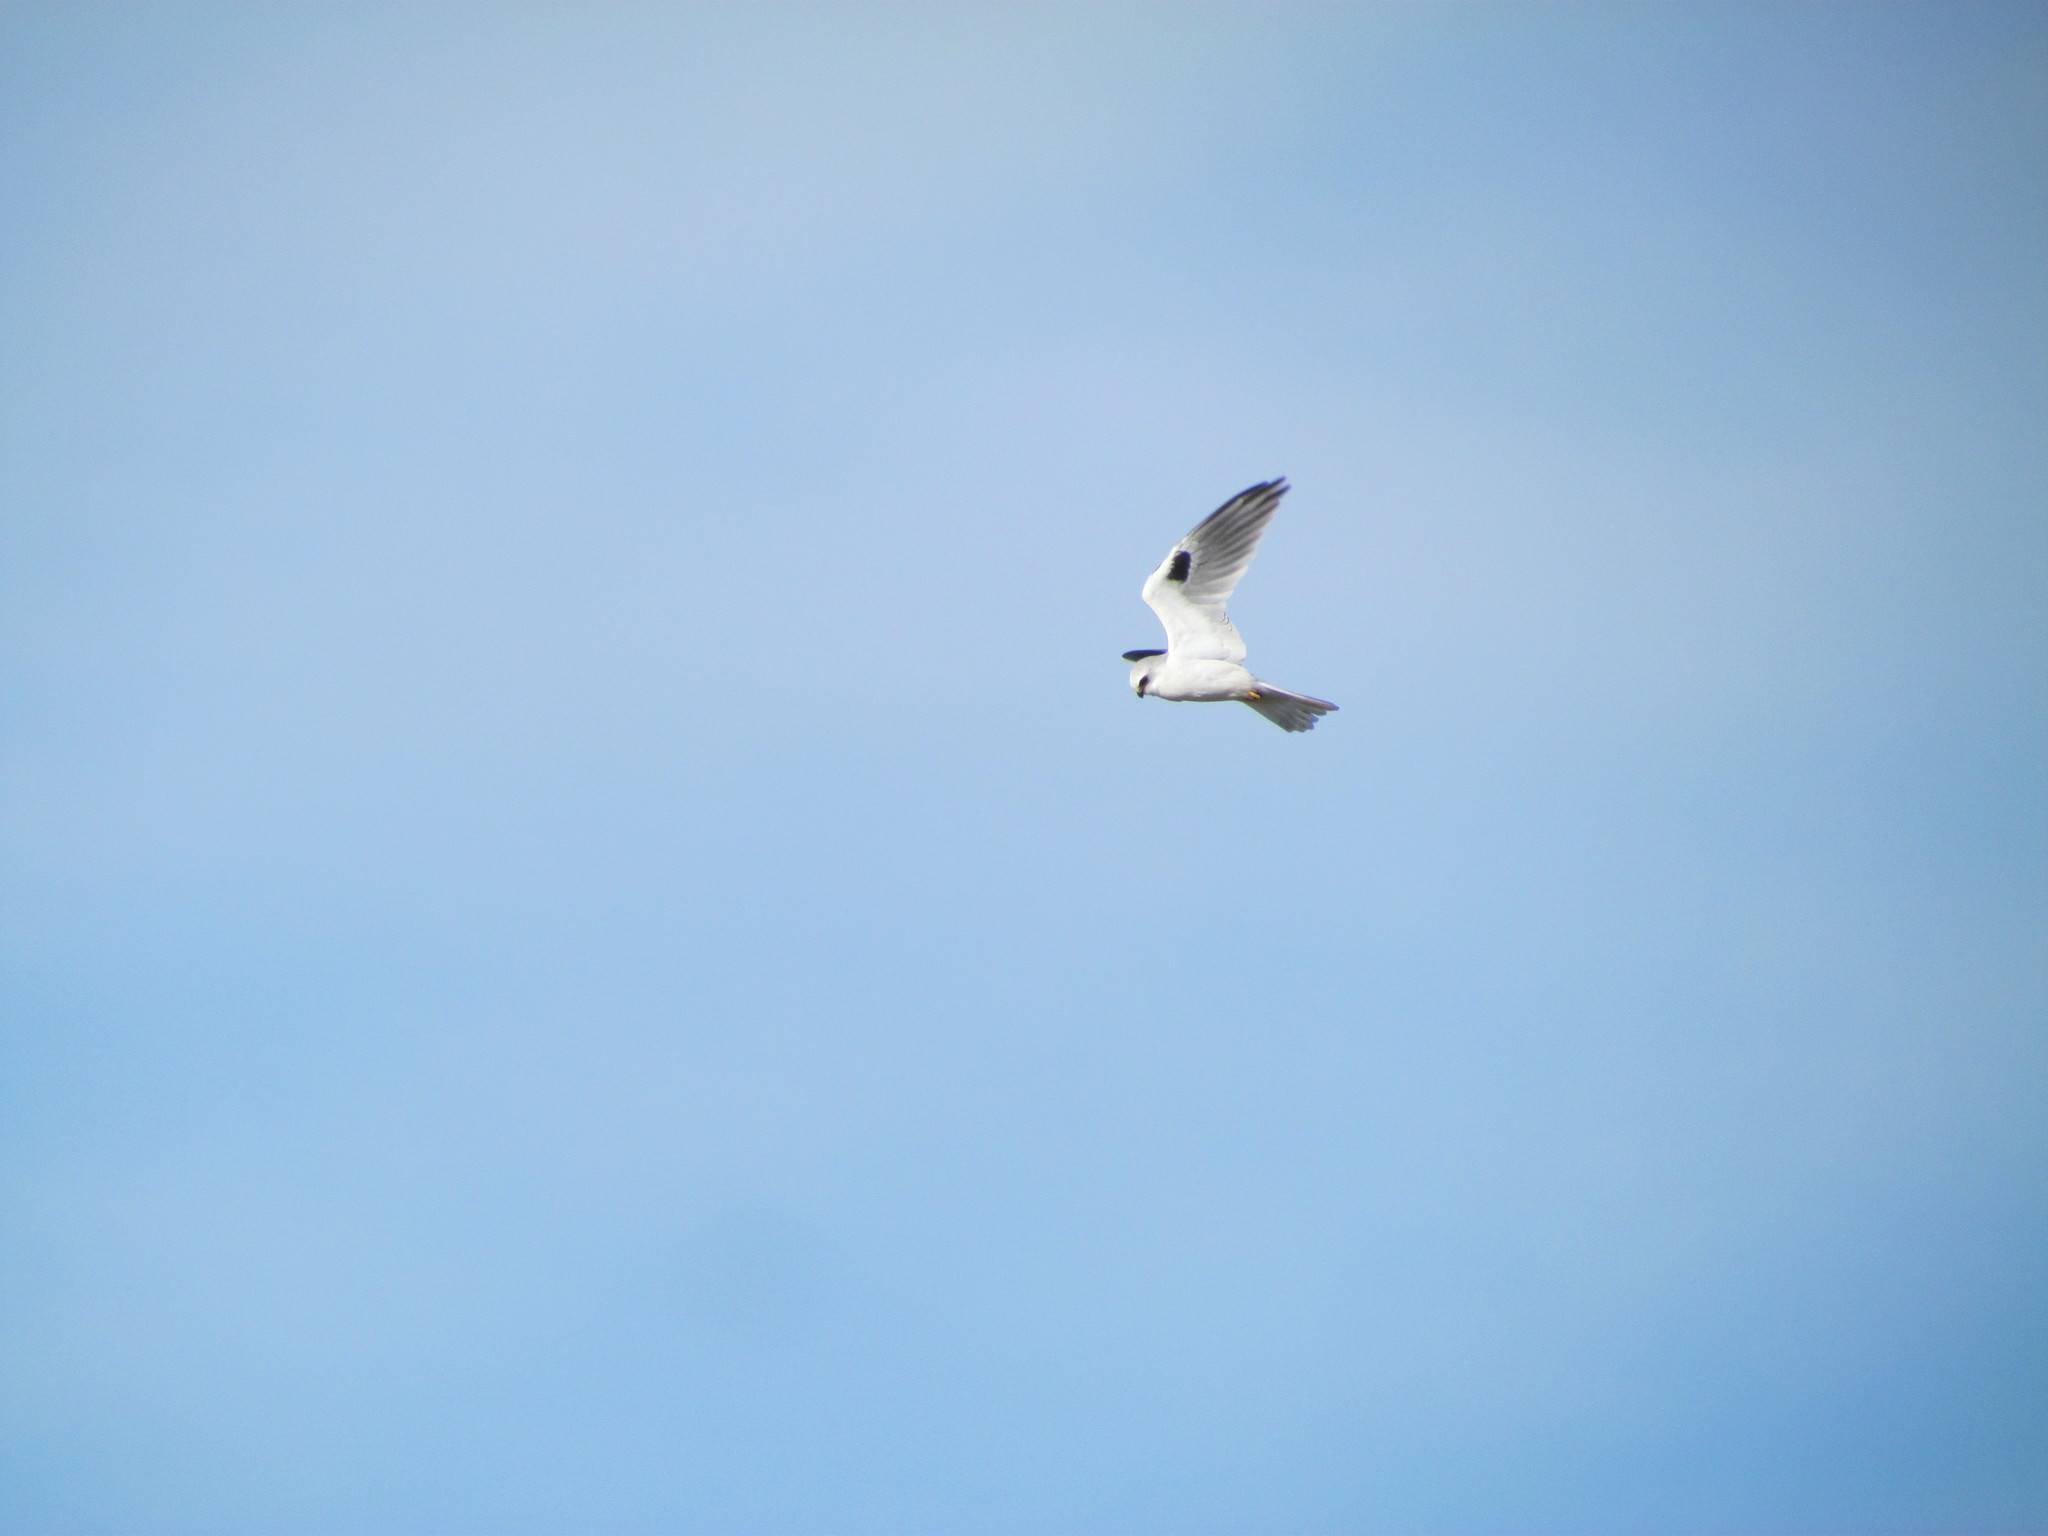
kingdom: Animalia
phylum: Chordata
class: Aves
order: Accipitriformes
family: Accipitridae
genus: Elanus
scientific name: Elanus leucurus
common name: White-tailed kite
